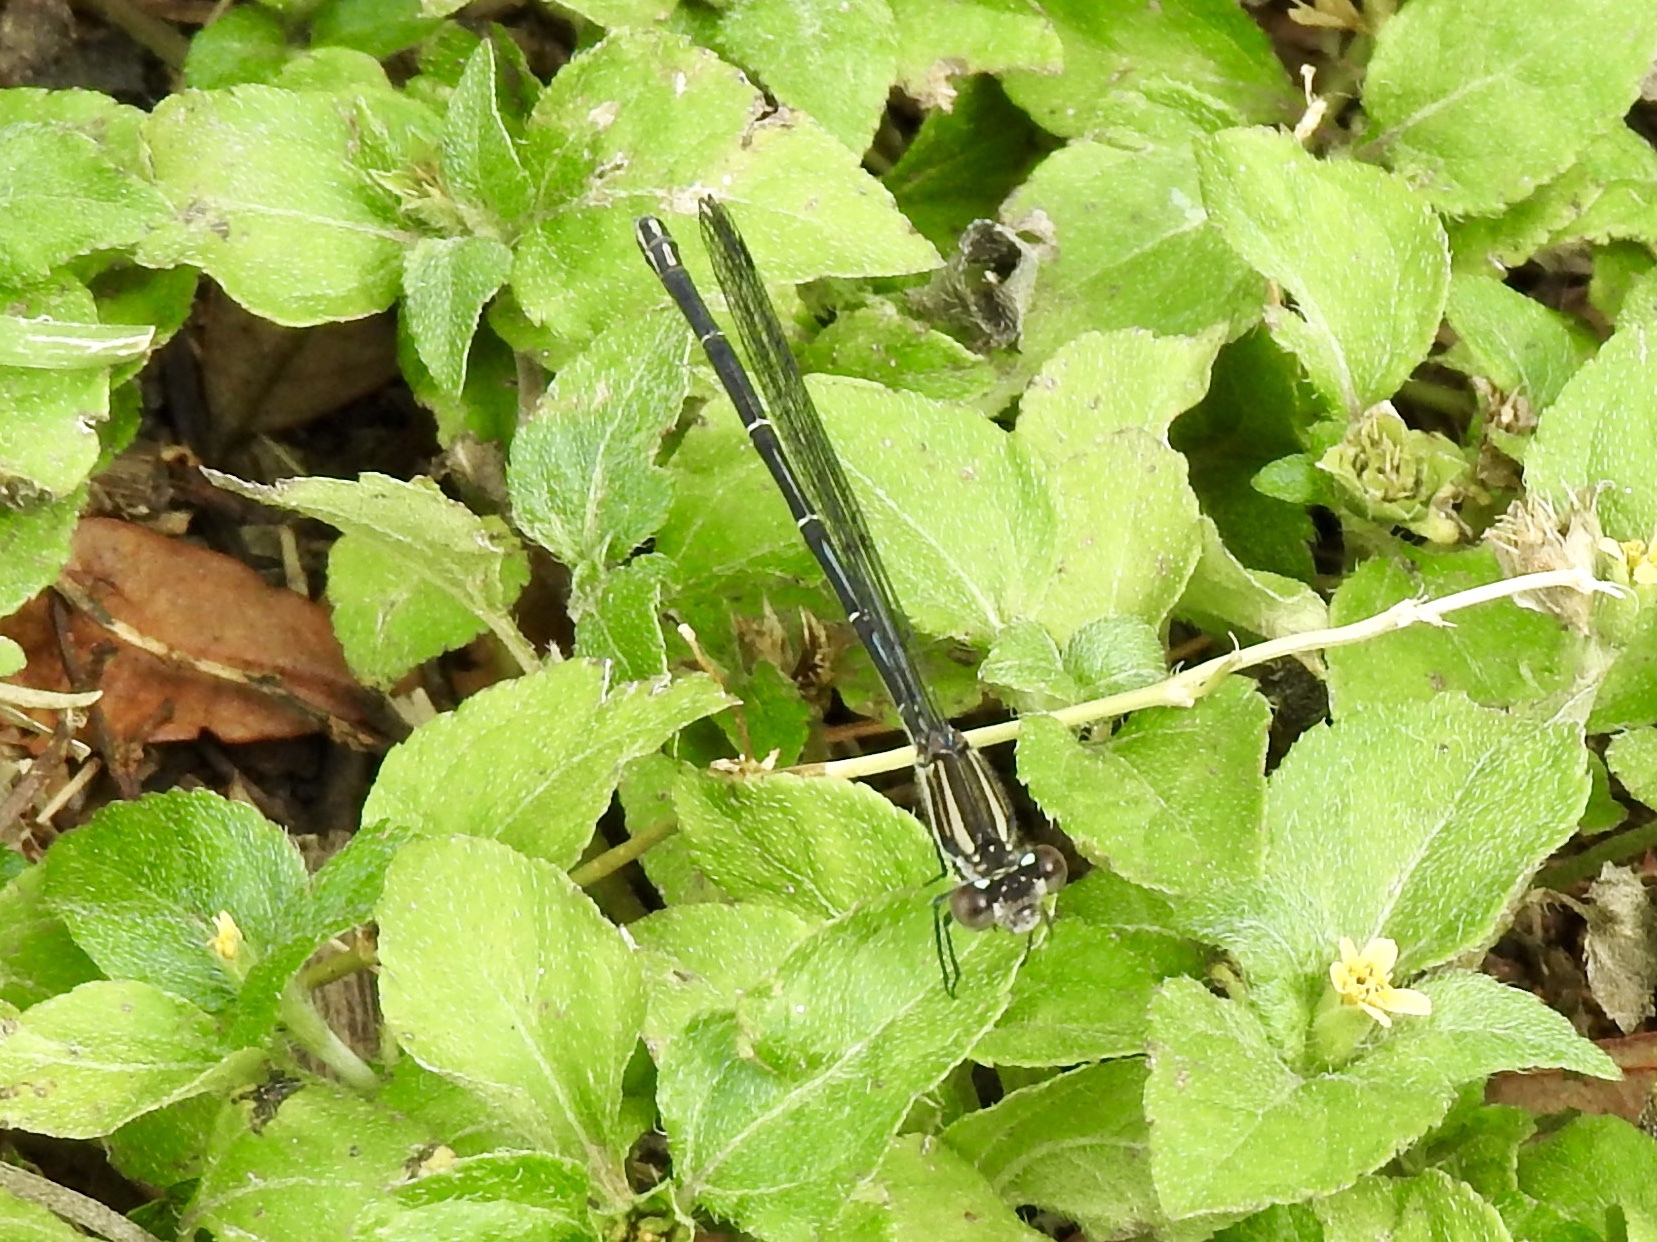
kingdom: Animalia
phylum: Arthropoda
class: Insecta
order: Odonata
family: Coenagrionidae
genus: Argia
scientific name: Argia translata
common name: Dusky dancer
